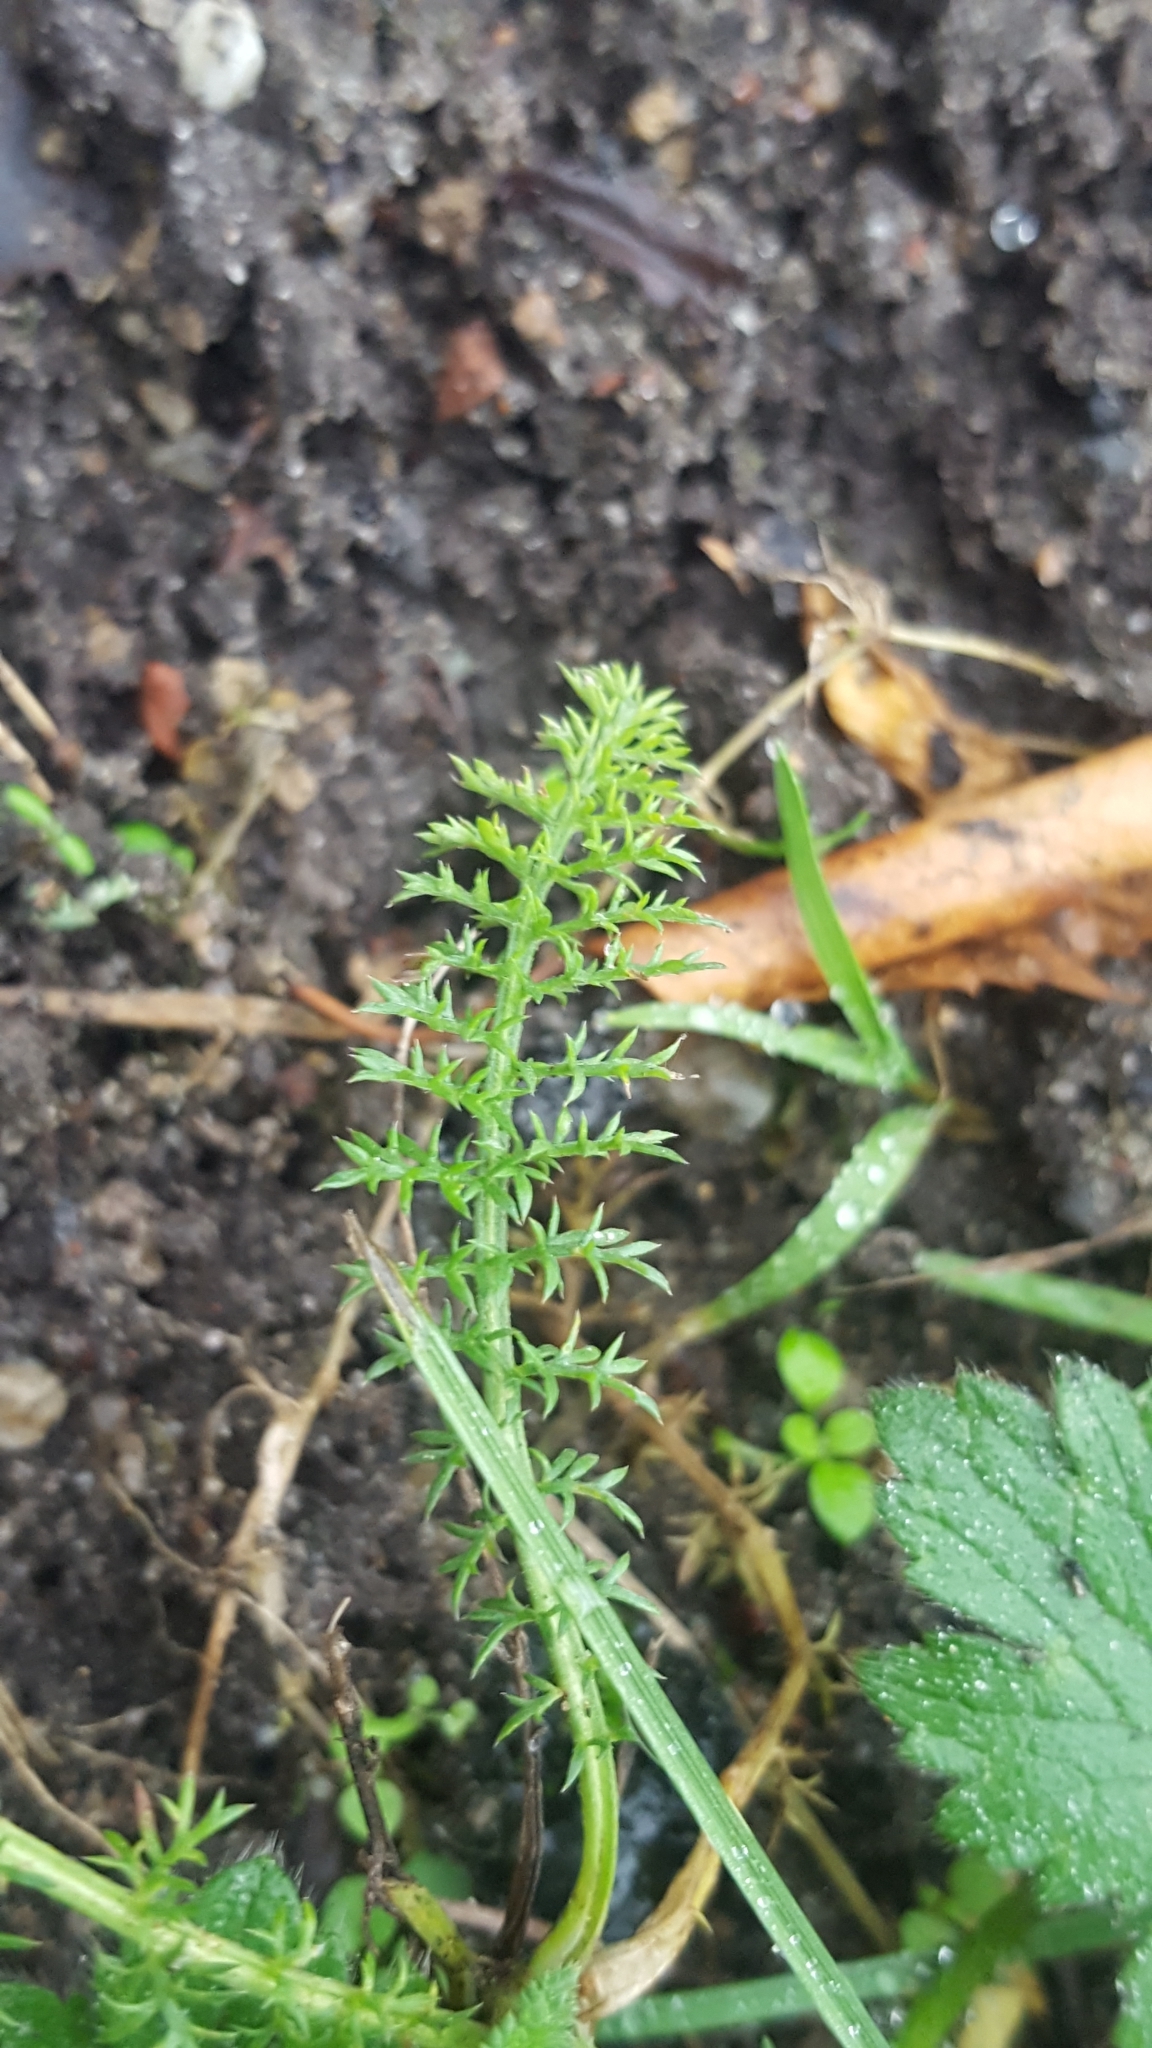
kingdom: Plantae
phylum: Tracheophyta
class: Magnoliopsida
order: Asterales
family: Asteraceae
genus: Achillea
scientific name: Achillea millefolium
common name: Yarrow
